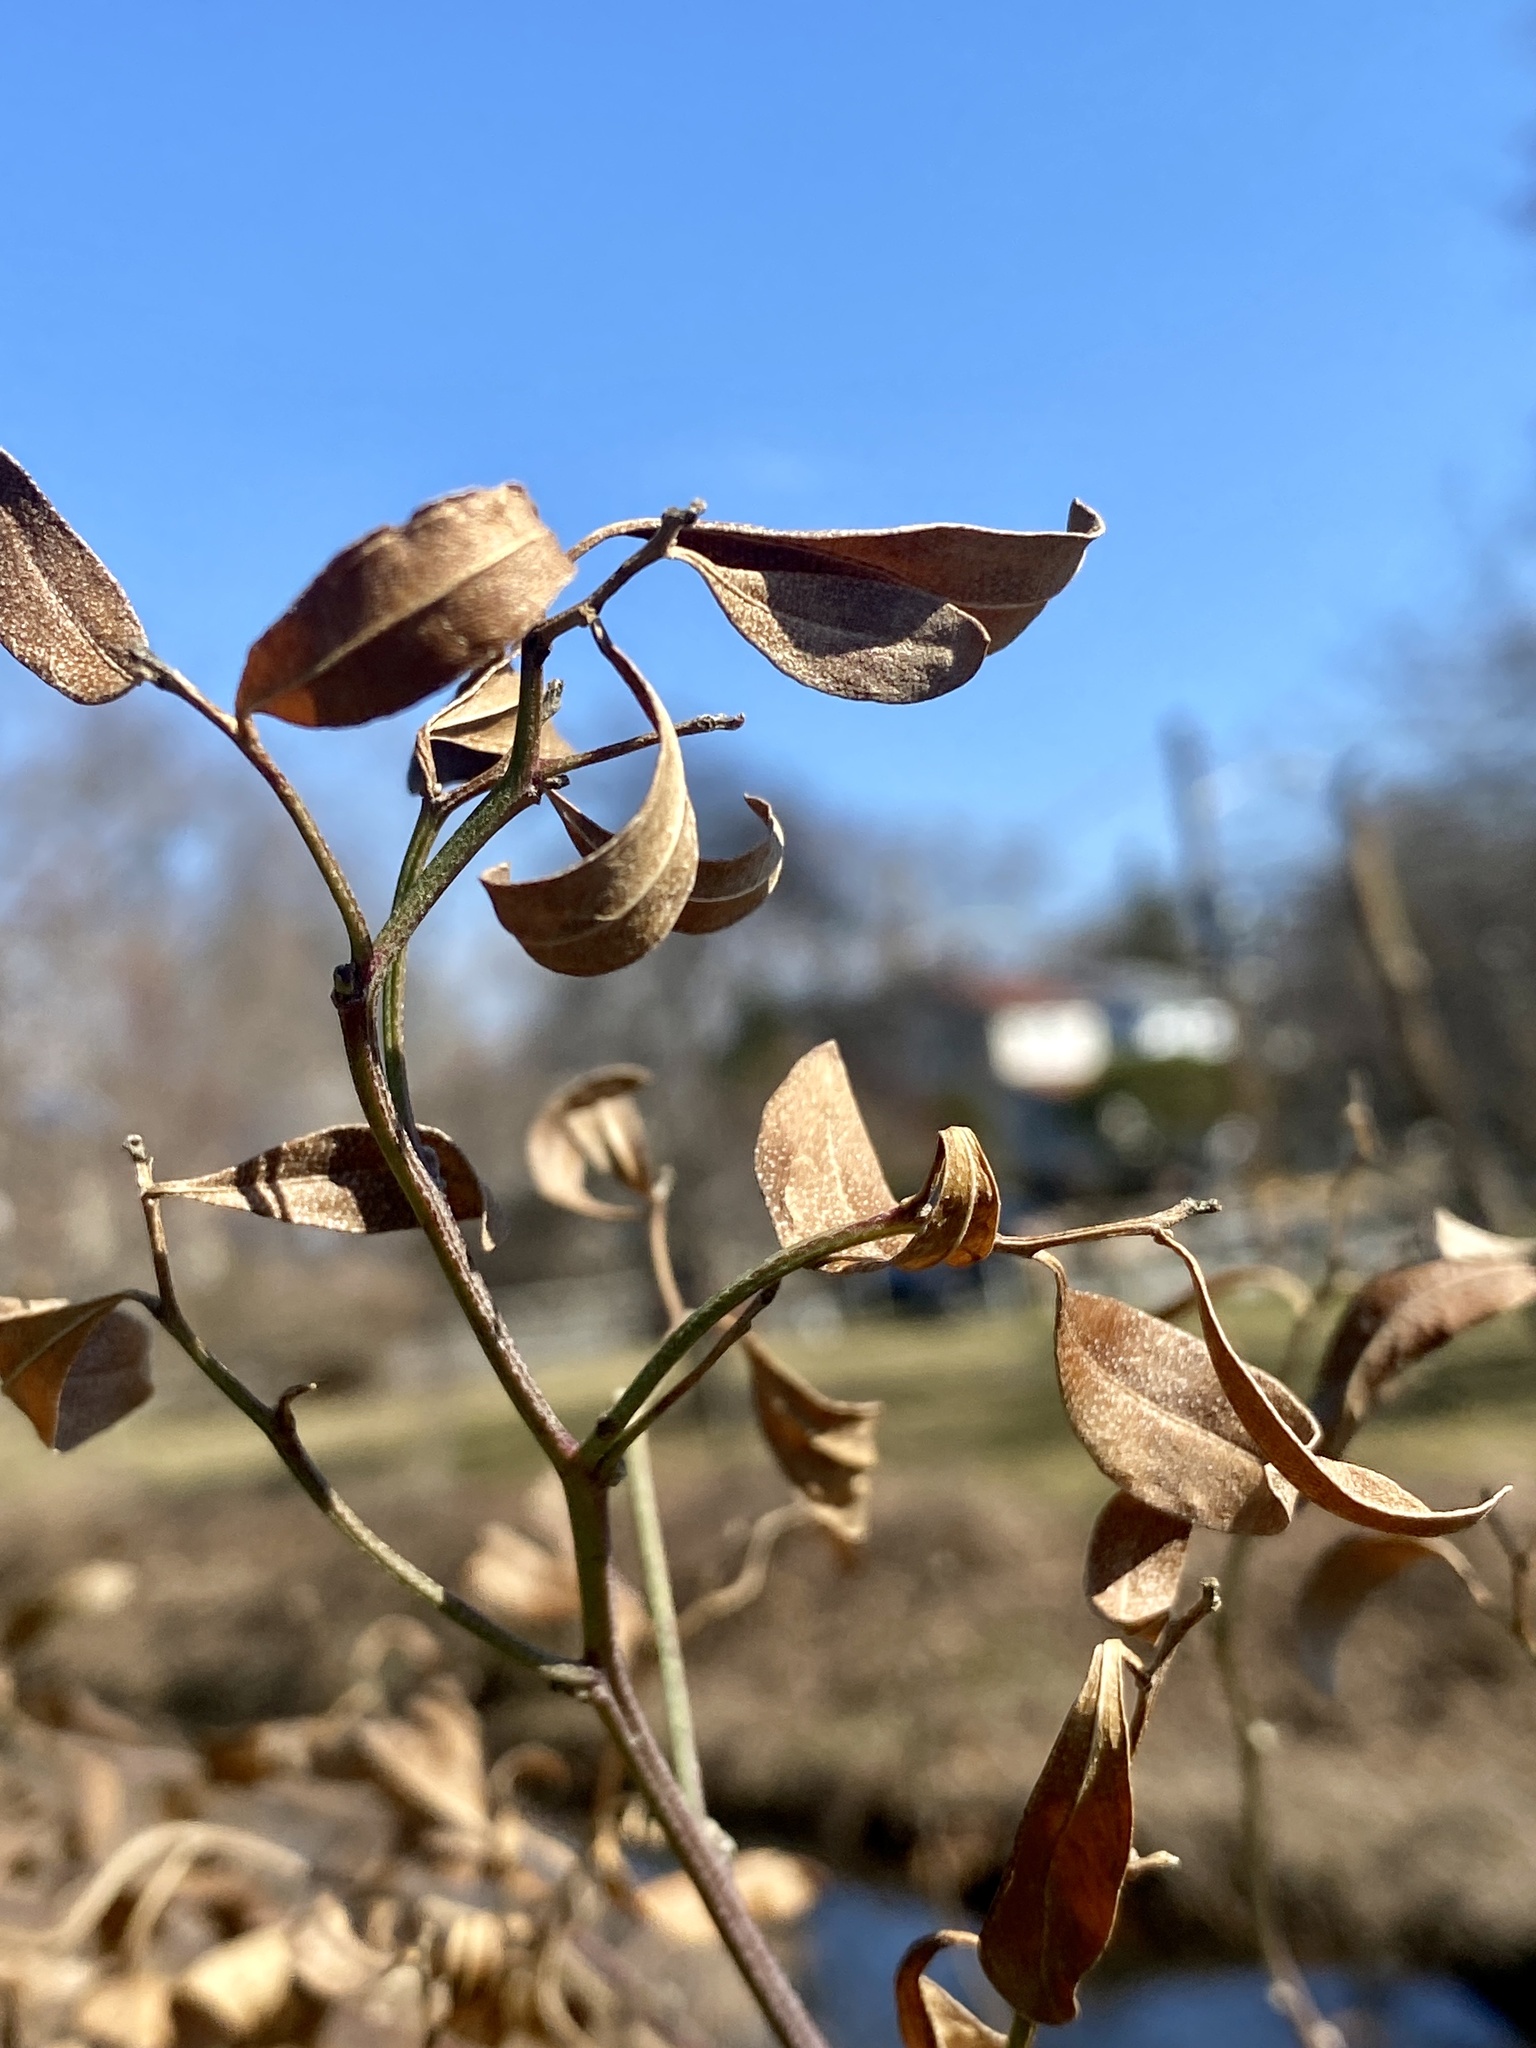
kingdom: Plantae
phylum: Tracheophyta
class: Magnoliopsida
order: Asterales
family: Asteraceae
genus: Baccharis
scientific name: Baccharis halimifolia
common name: Eastern baccharis
